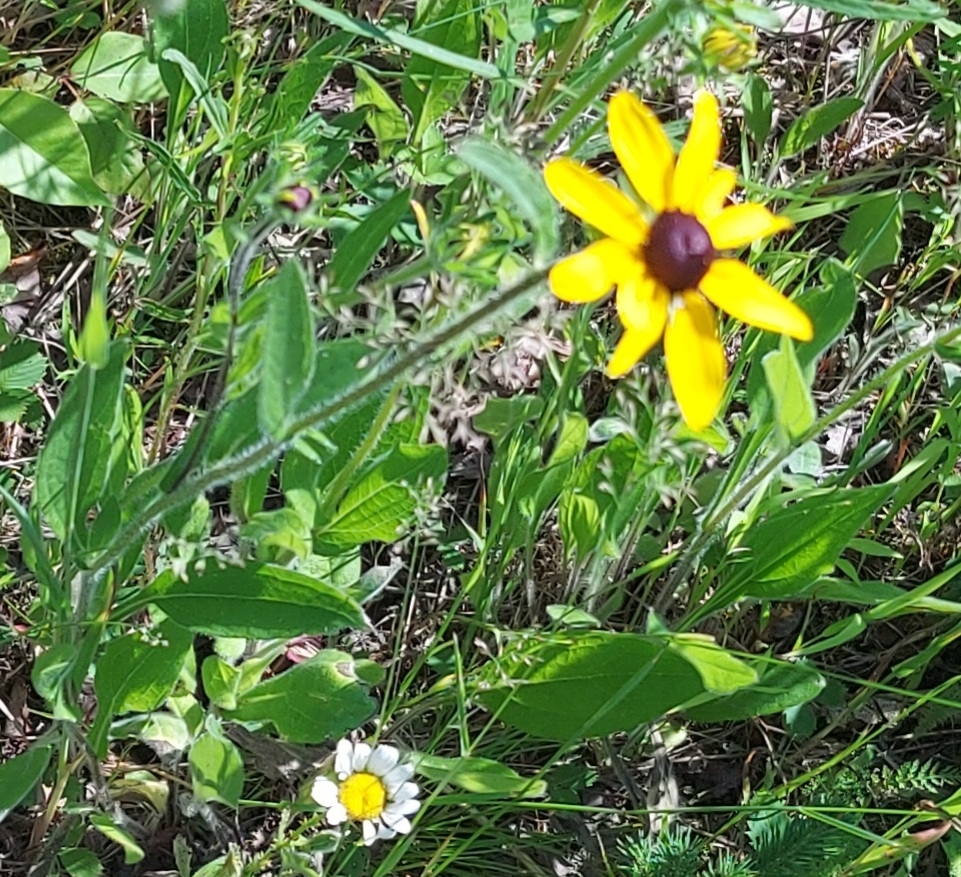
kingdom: Plantae
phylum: Tracheophyta
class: Magnoliopsida
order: Asterales
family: Asteraceae
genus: Rudbeckia
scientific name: Rudbeckia hirta
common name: Black-eyed-susan
